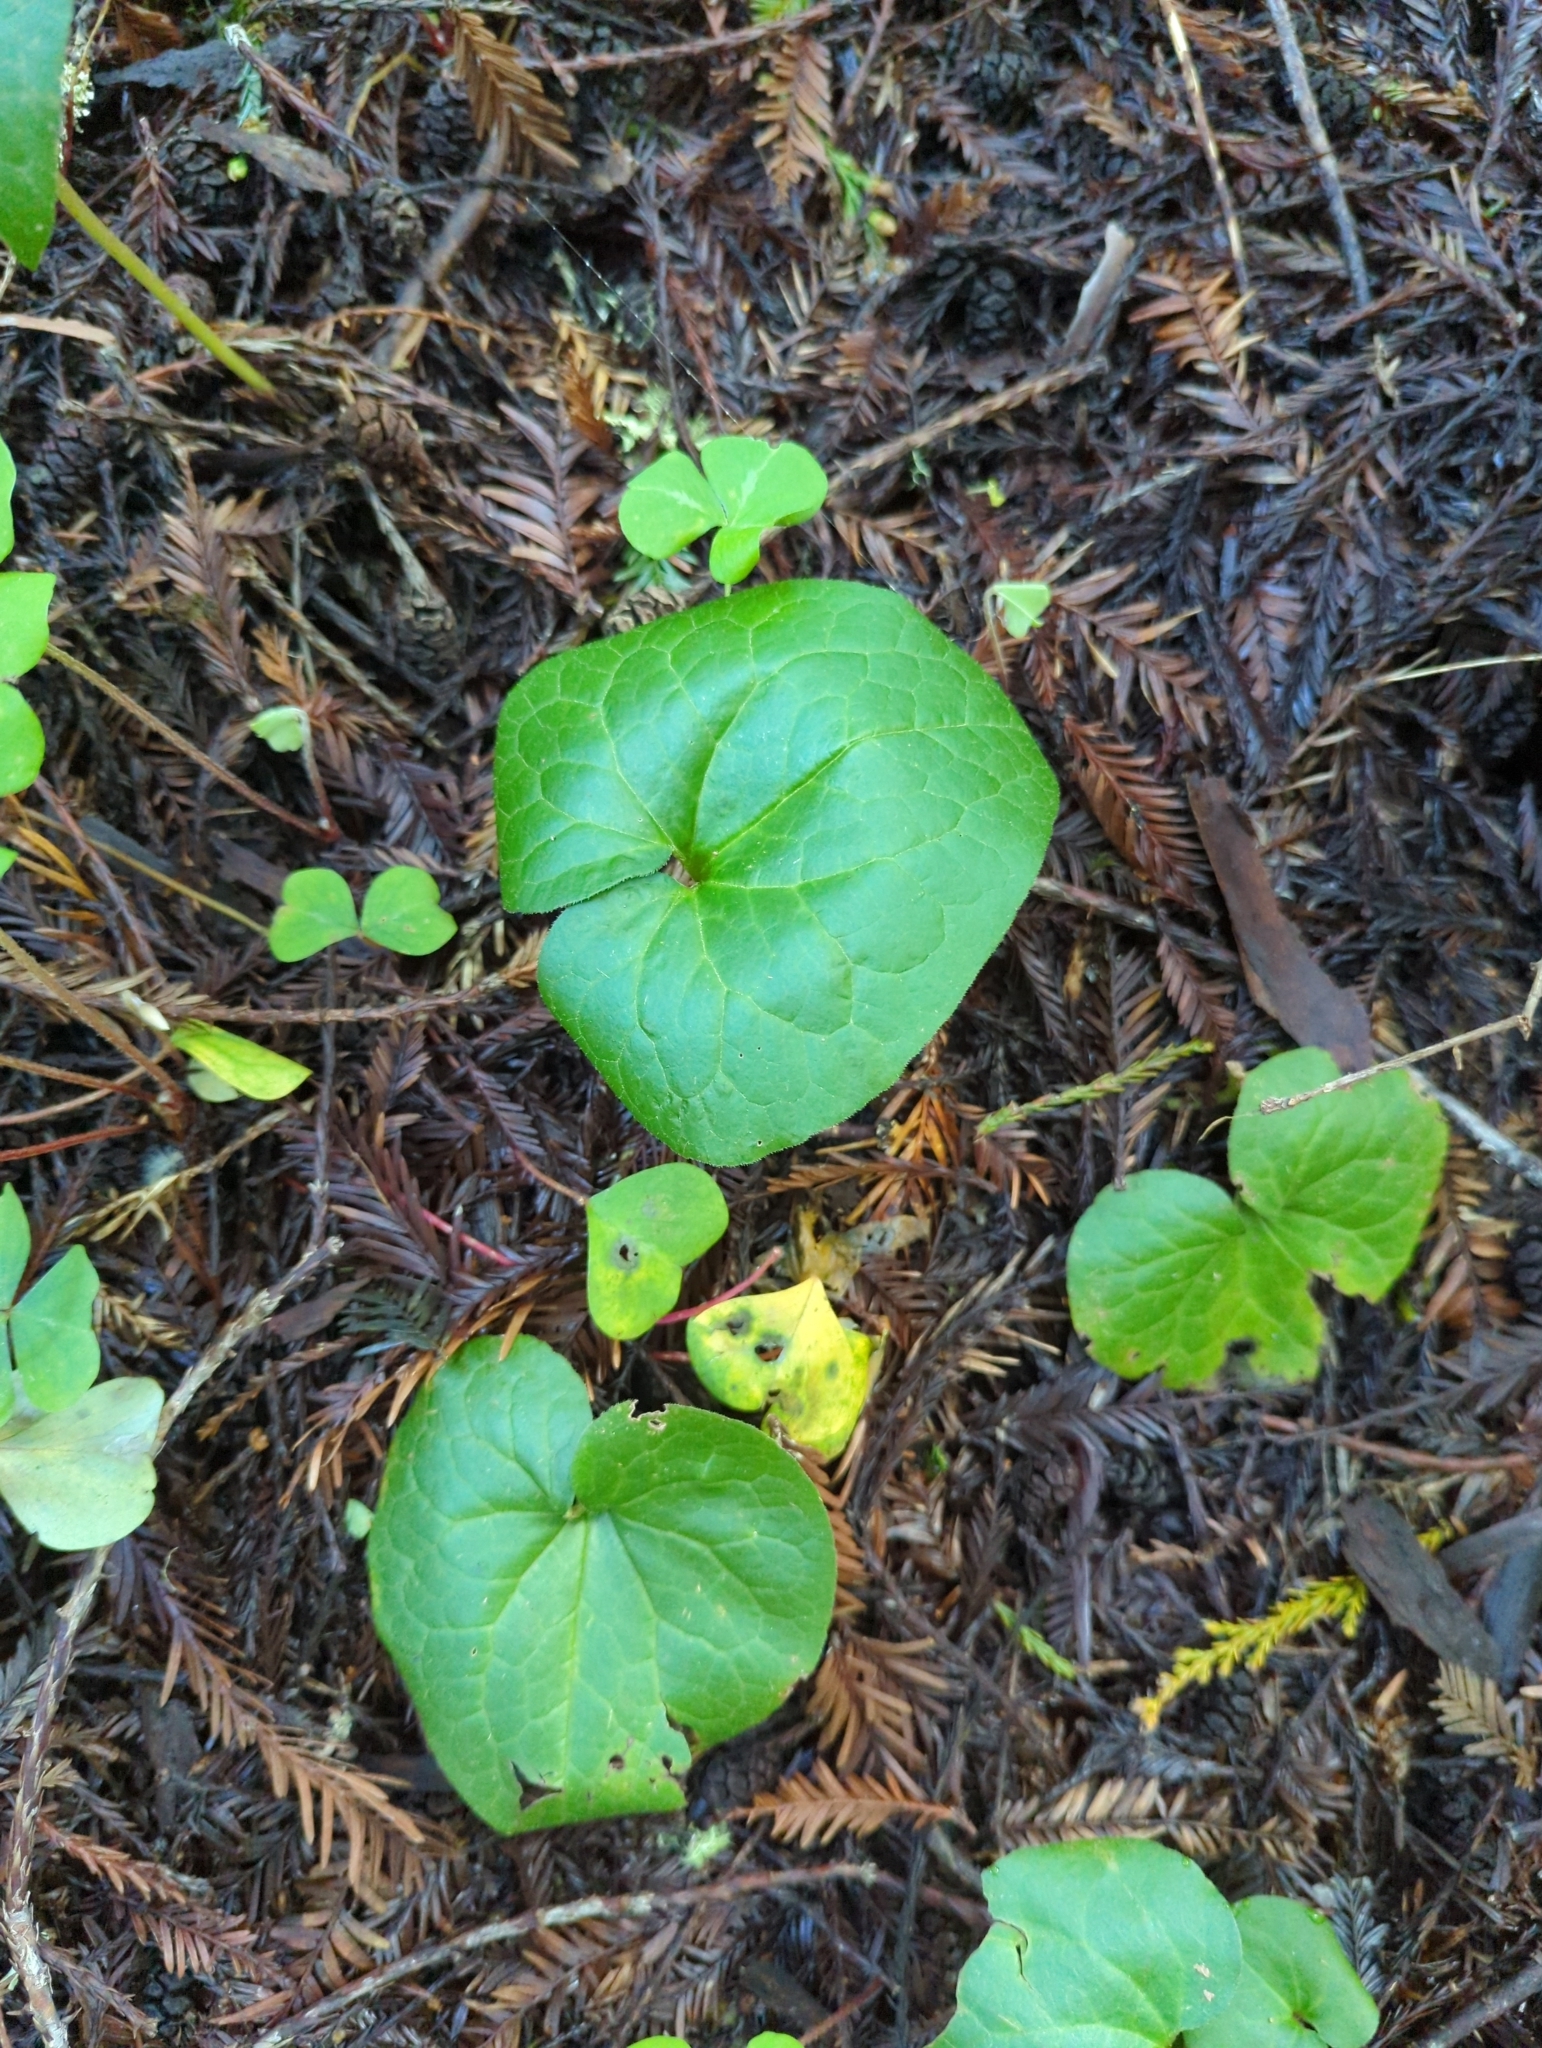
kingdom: Plantae
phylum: Tracheophyta
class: Magnoliopsida
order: Piperales
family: Aristolochiaceae
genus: Asarum
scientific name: Asarum caudatum
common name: Wild ginger
